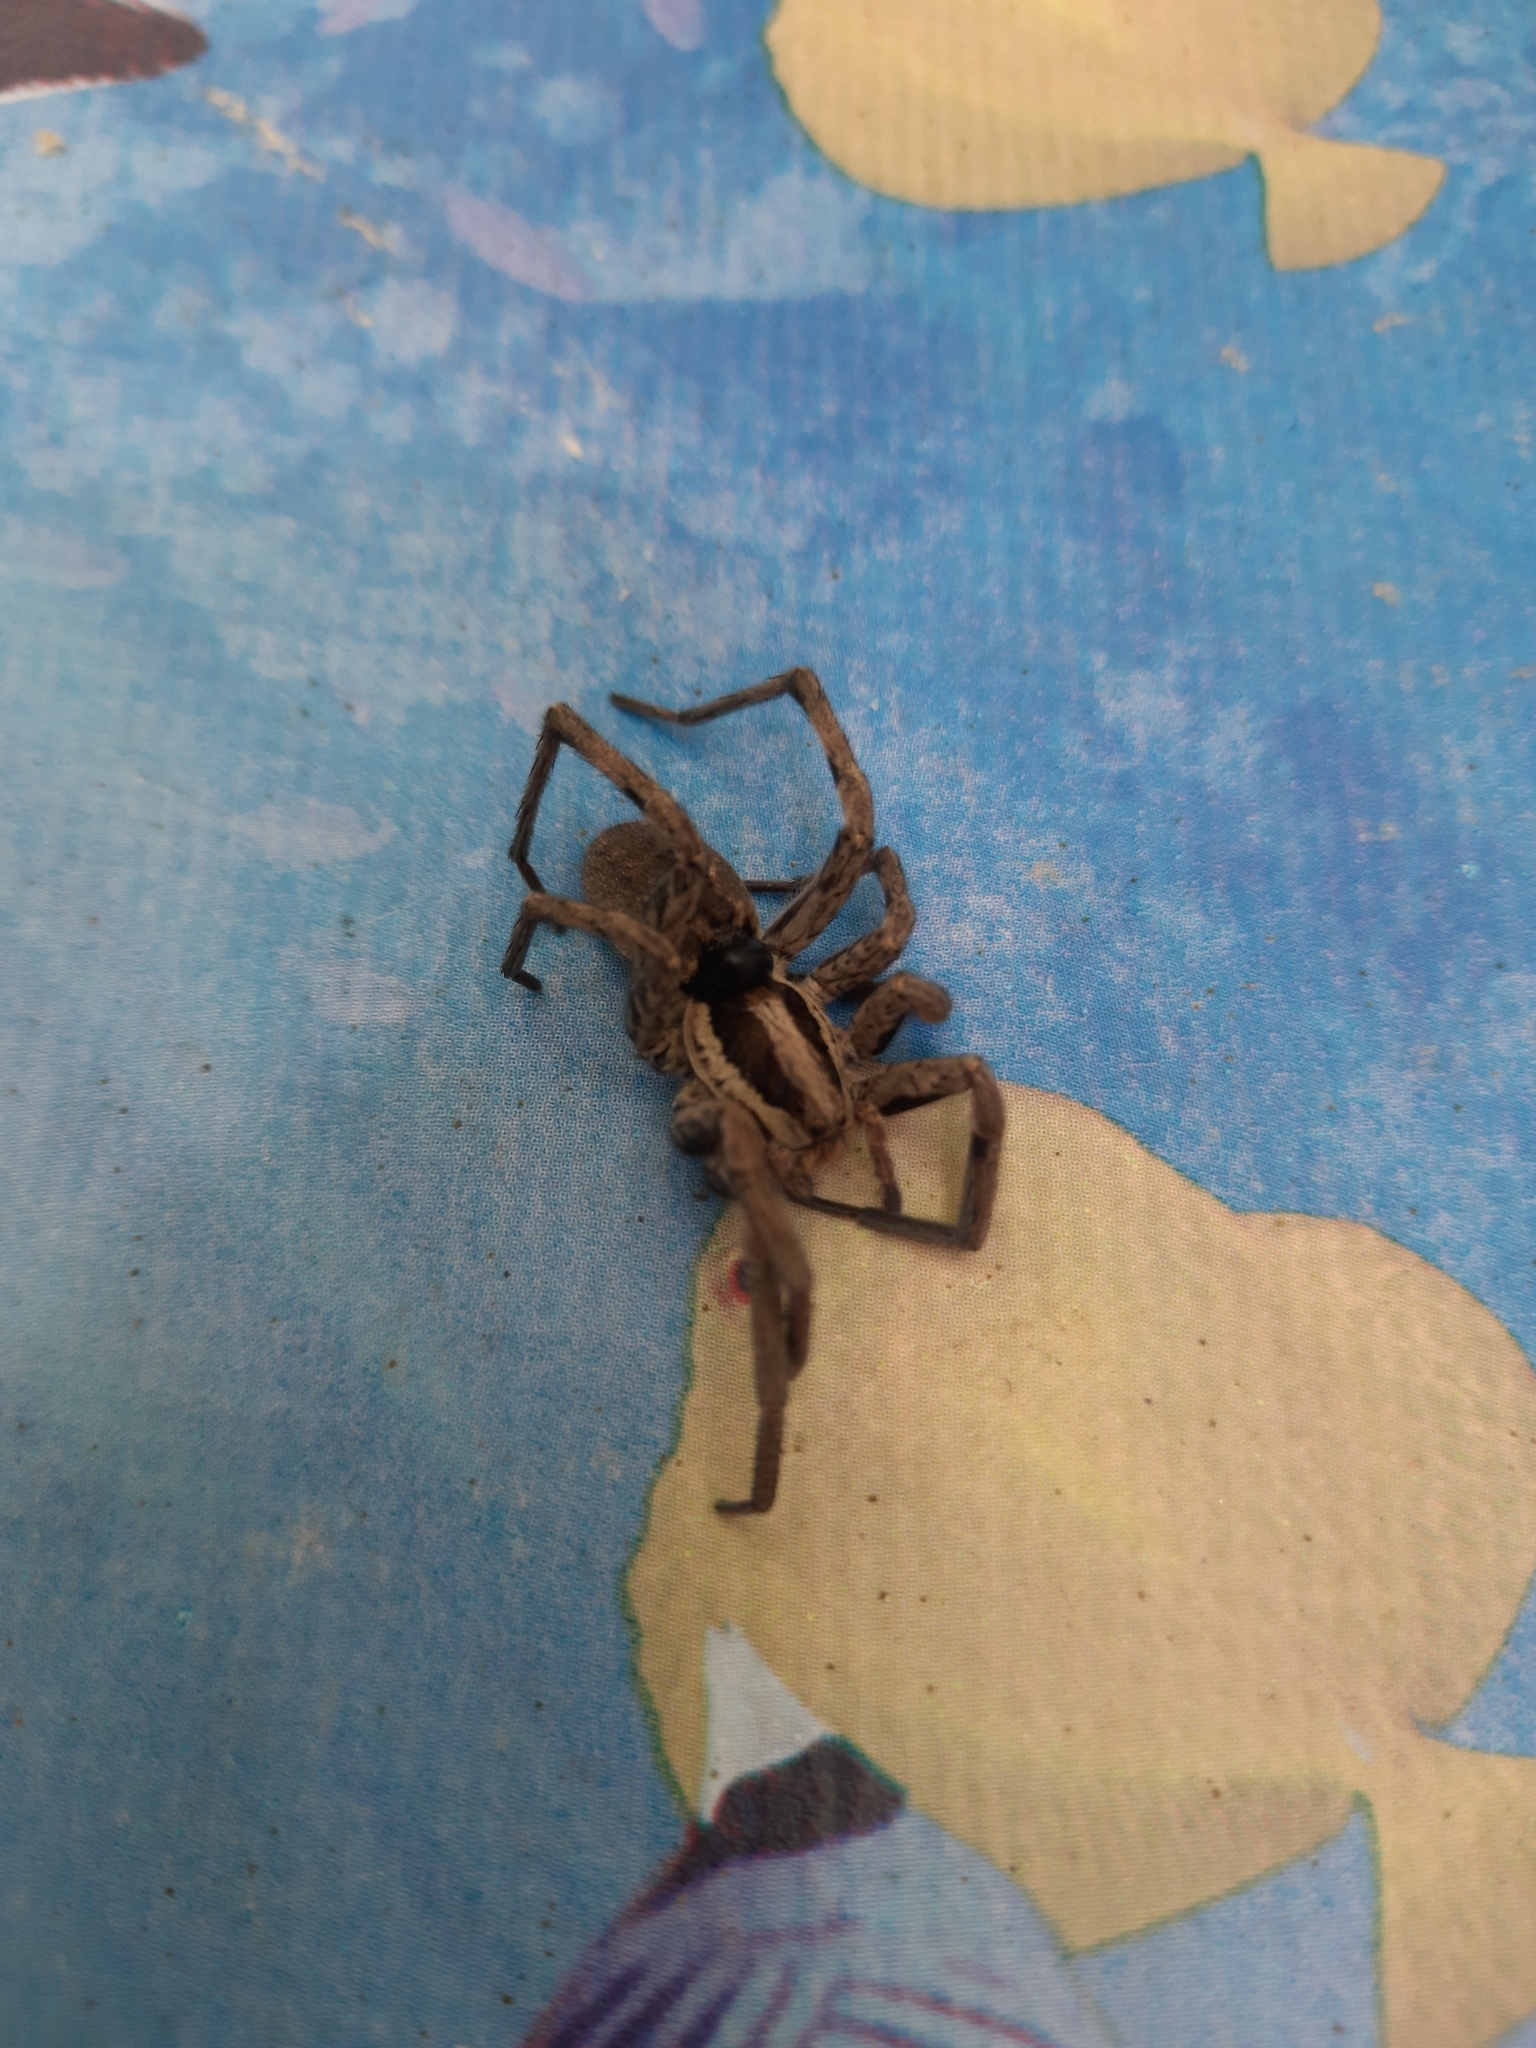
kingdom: Animalia
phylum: Arthropoda
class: Arachnida
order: Araneae
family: Lycosidae
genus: Hogna
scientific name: Hogna radiata
